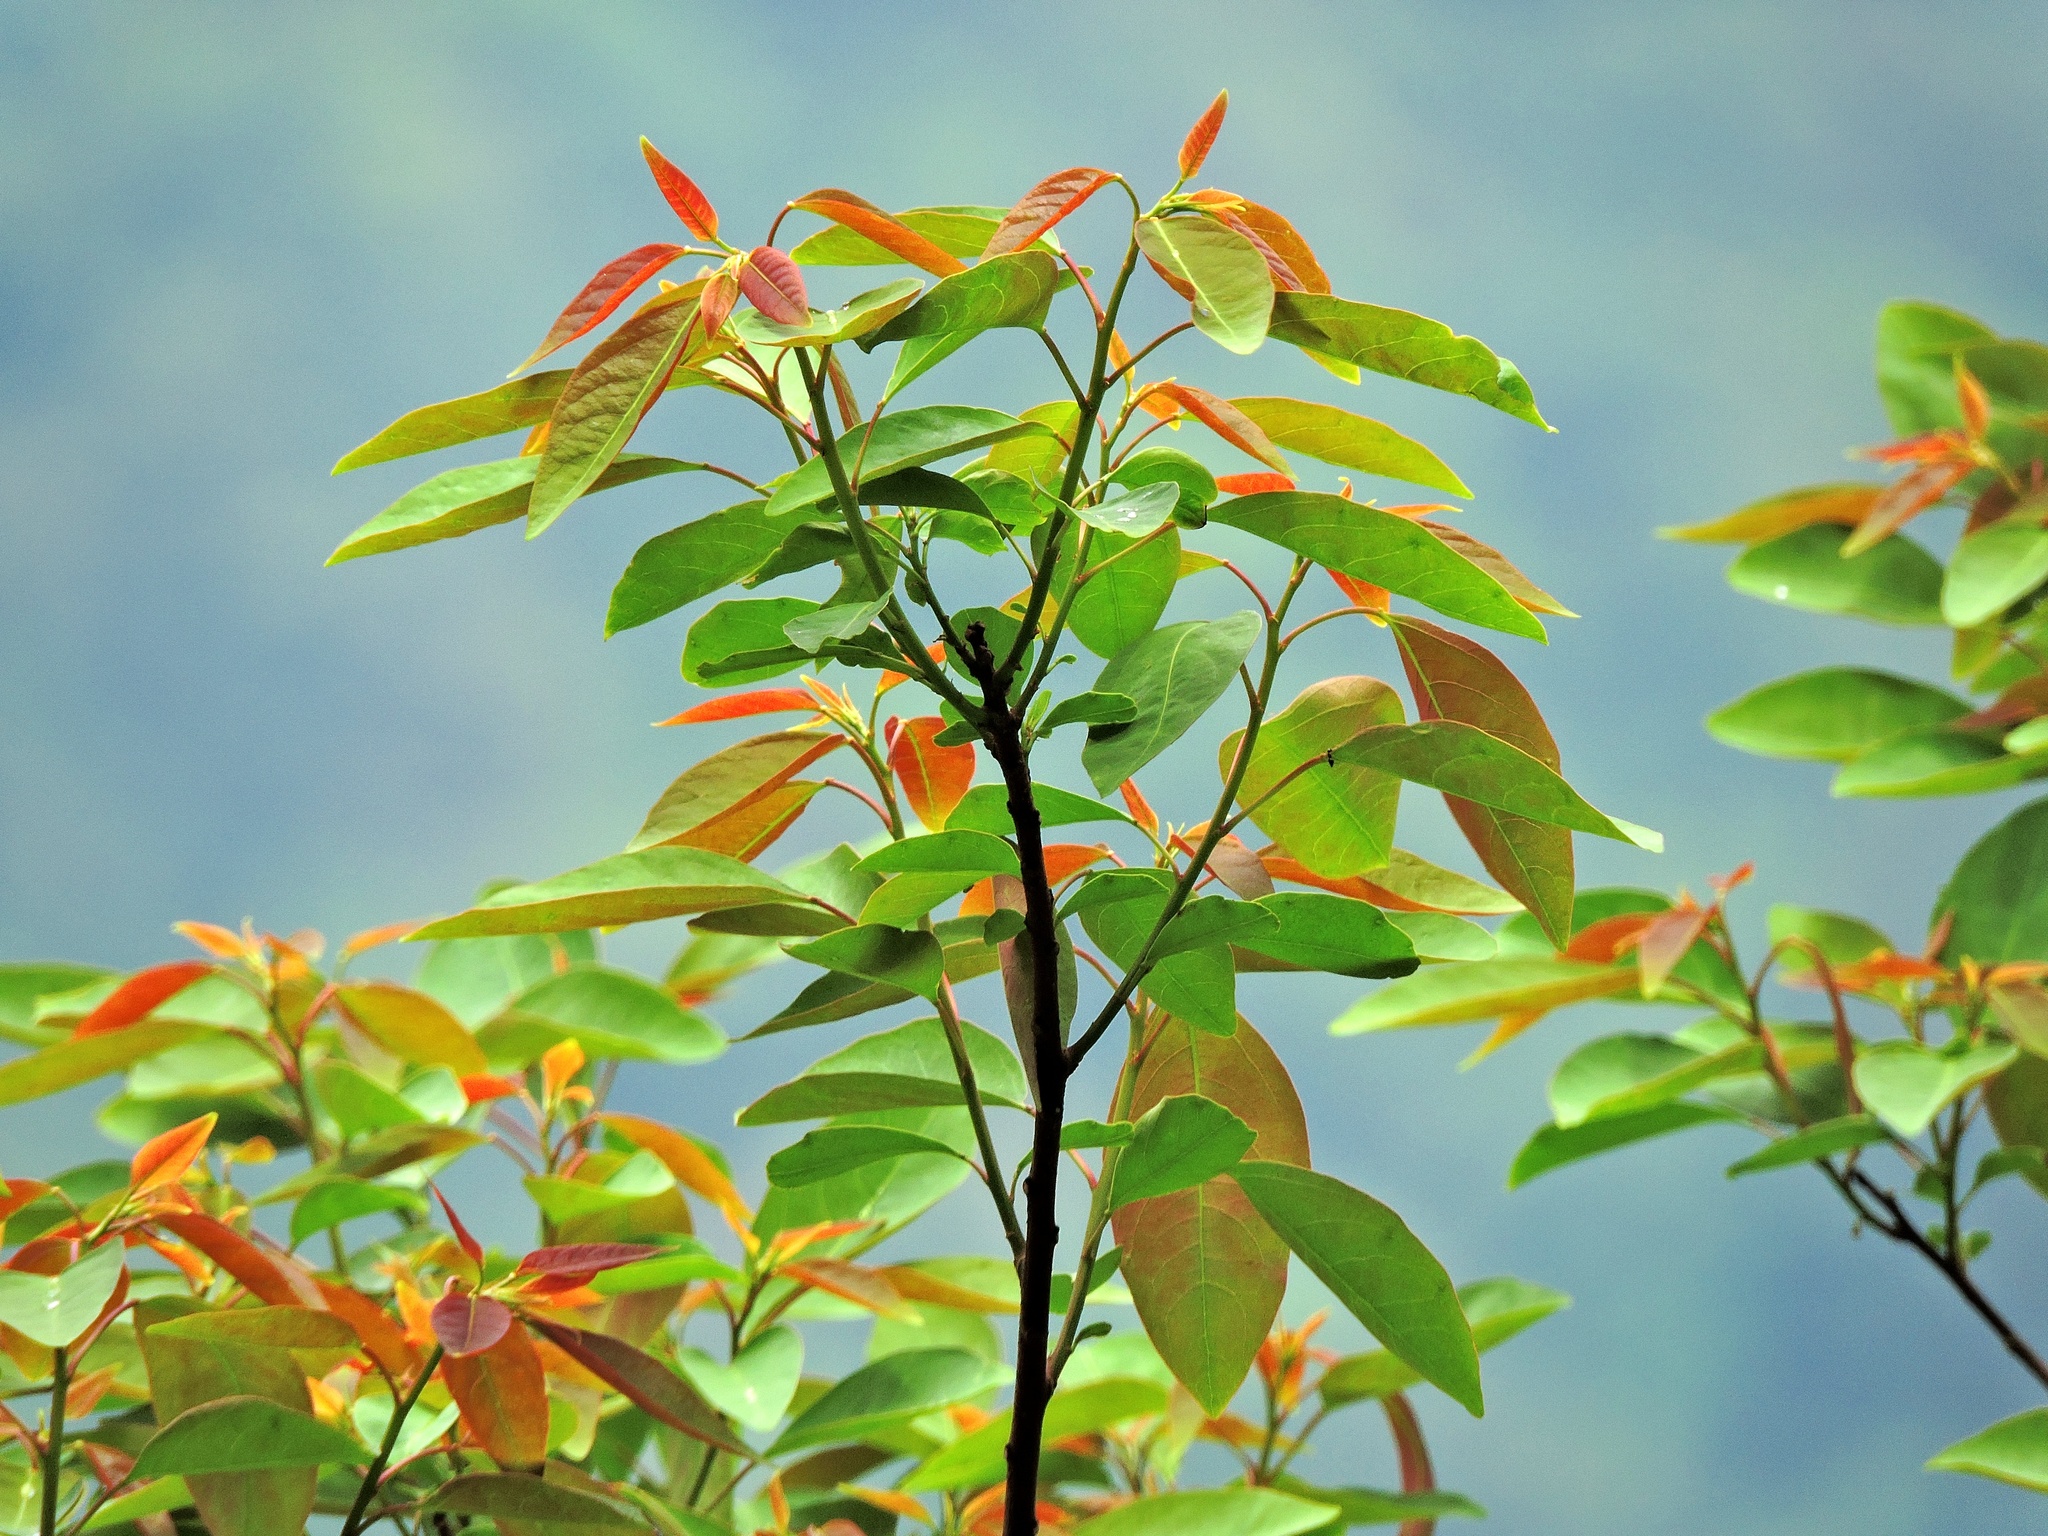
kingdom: Plantae
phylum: Tracheophyta
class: Magnoliopsida
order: Malpighiales
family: Euphorbiaceae
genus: Triadica
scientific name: Triadica cochinchinensis
